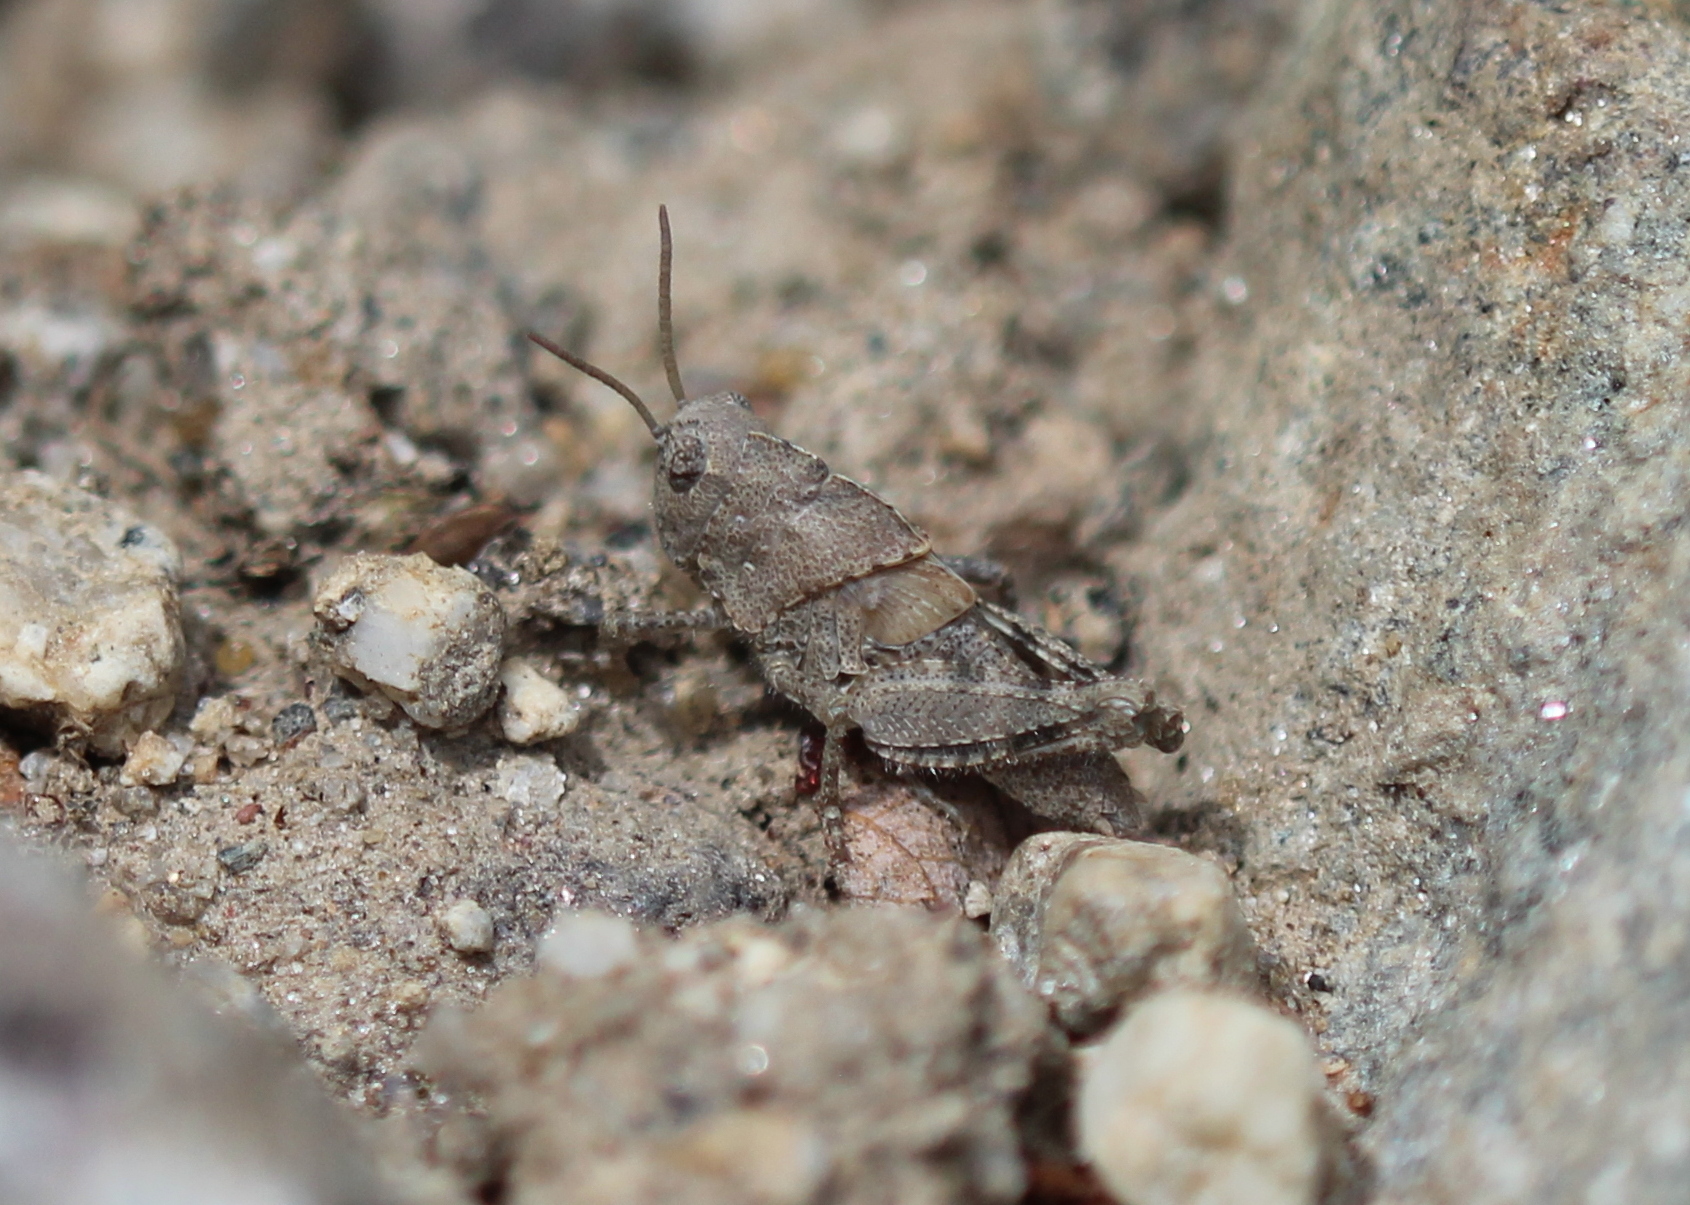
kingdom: Animalia
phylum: Arthropoda
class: Insecta
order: Orthoptera
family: Acrididae
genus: Dissosteira
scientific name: Dissosteira carolina
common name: Carolina grasshopper
